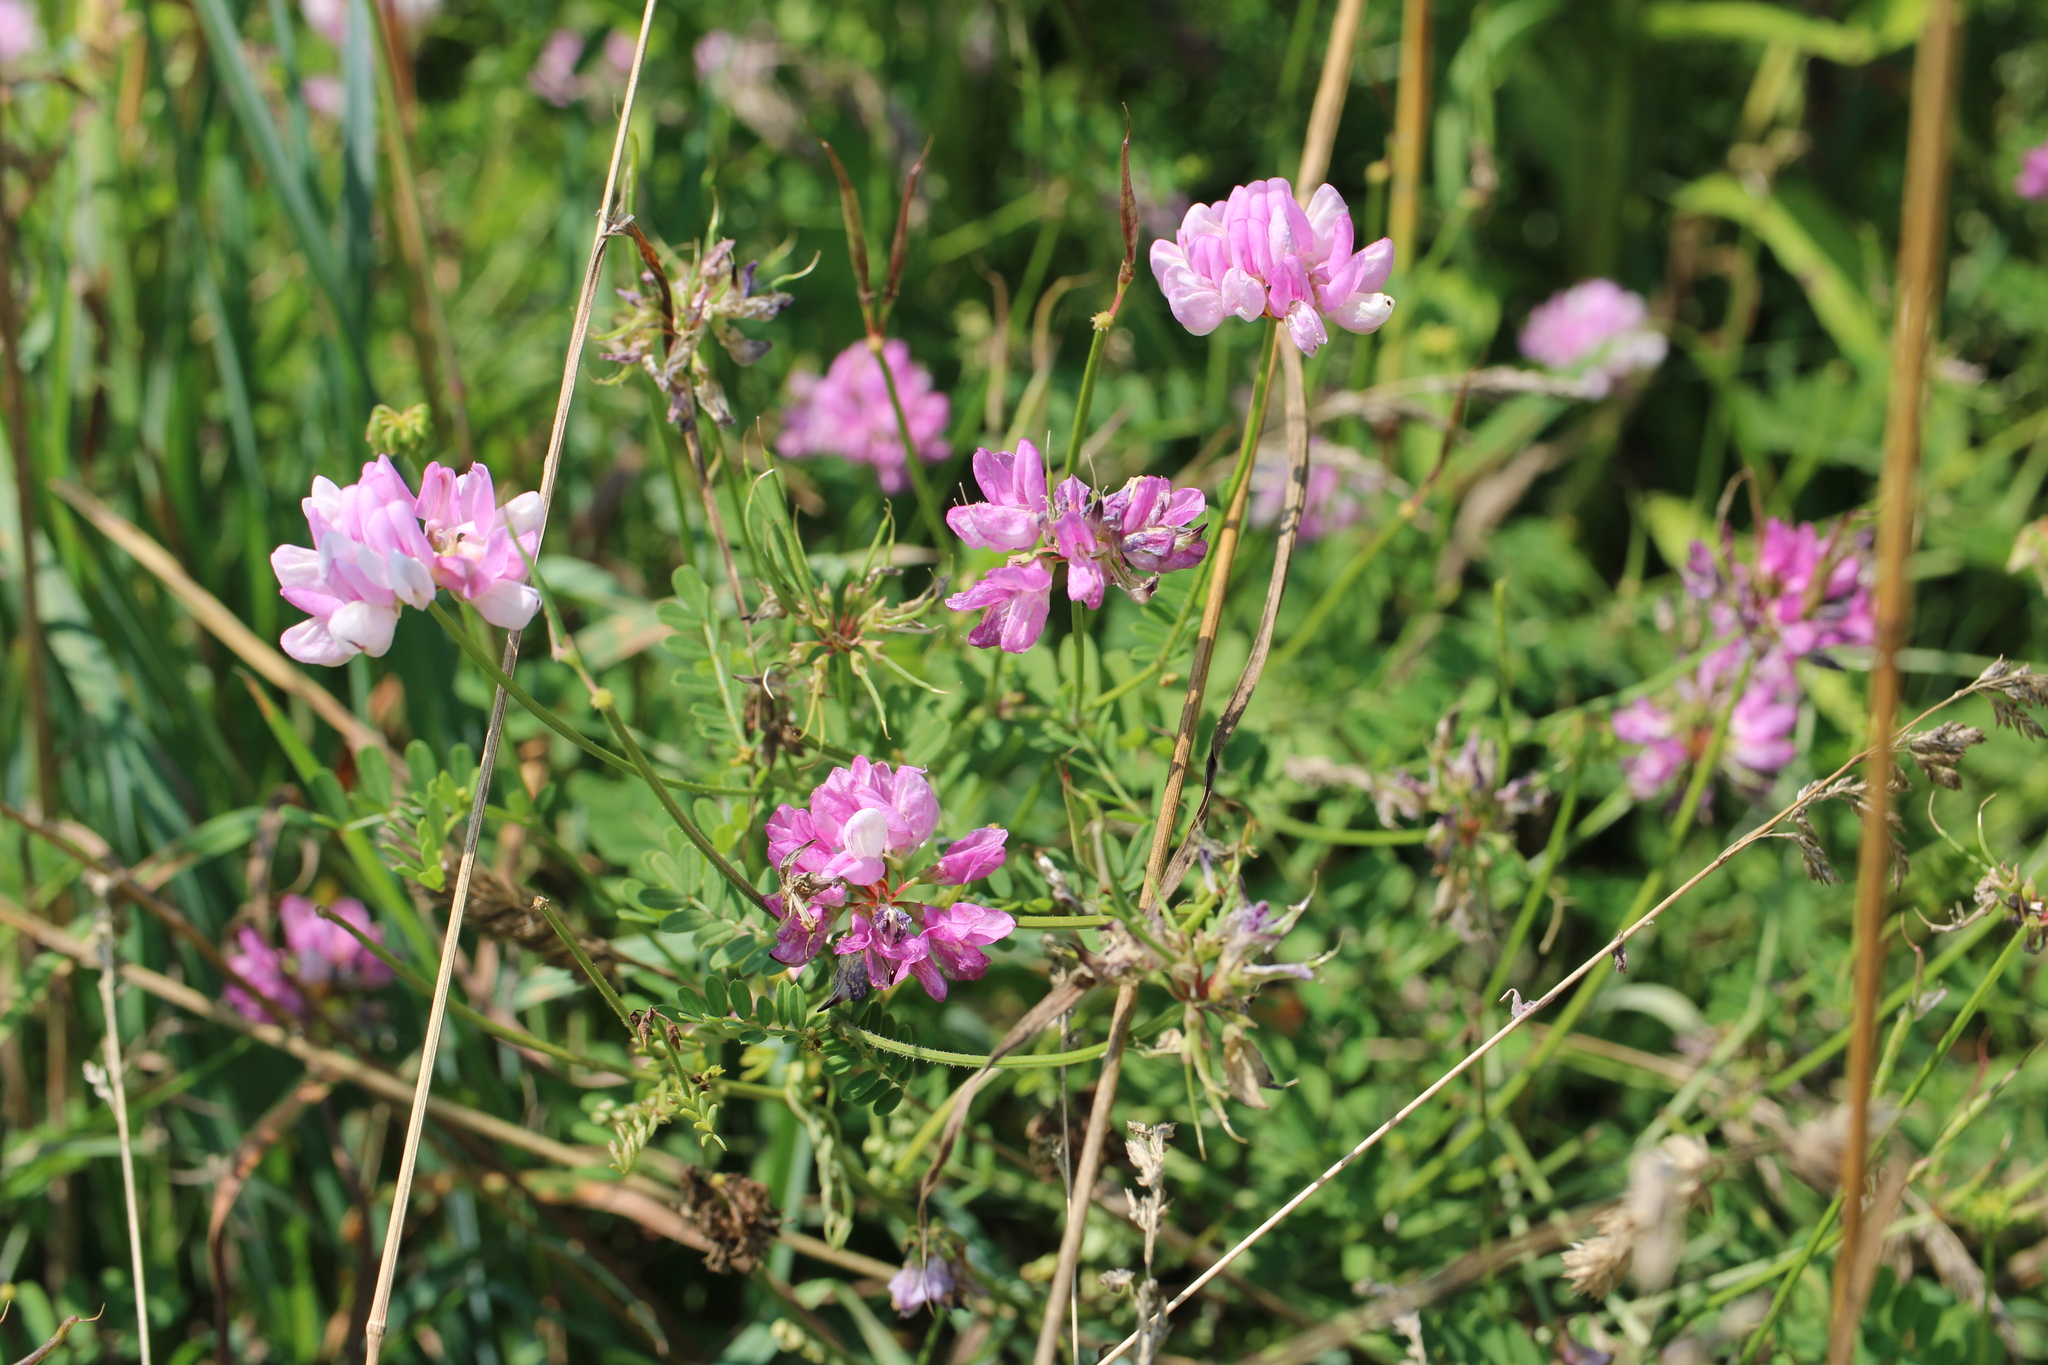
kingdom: Plantae
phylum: Tracheophyta
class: Magnoliopsida
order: Fabales
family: Fabaceae
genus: Coronilla
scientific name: Coronilla varia
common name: Crownvetch
